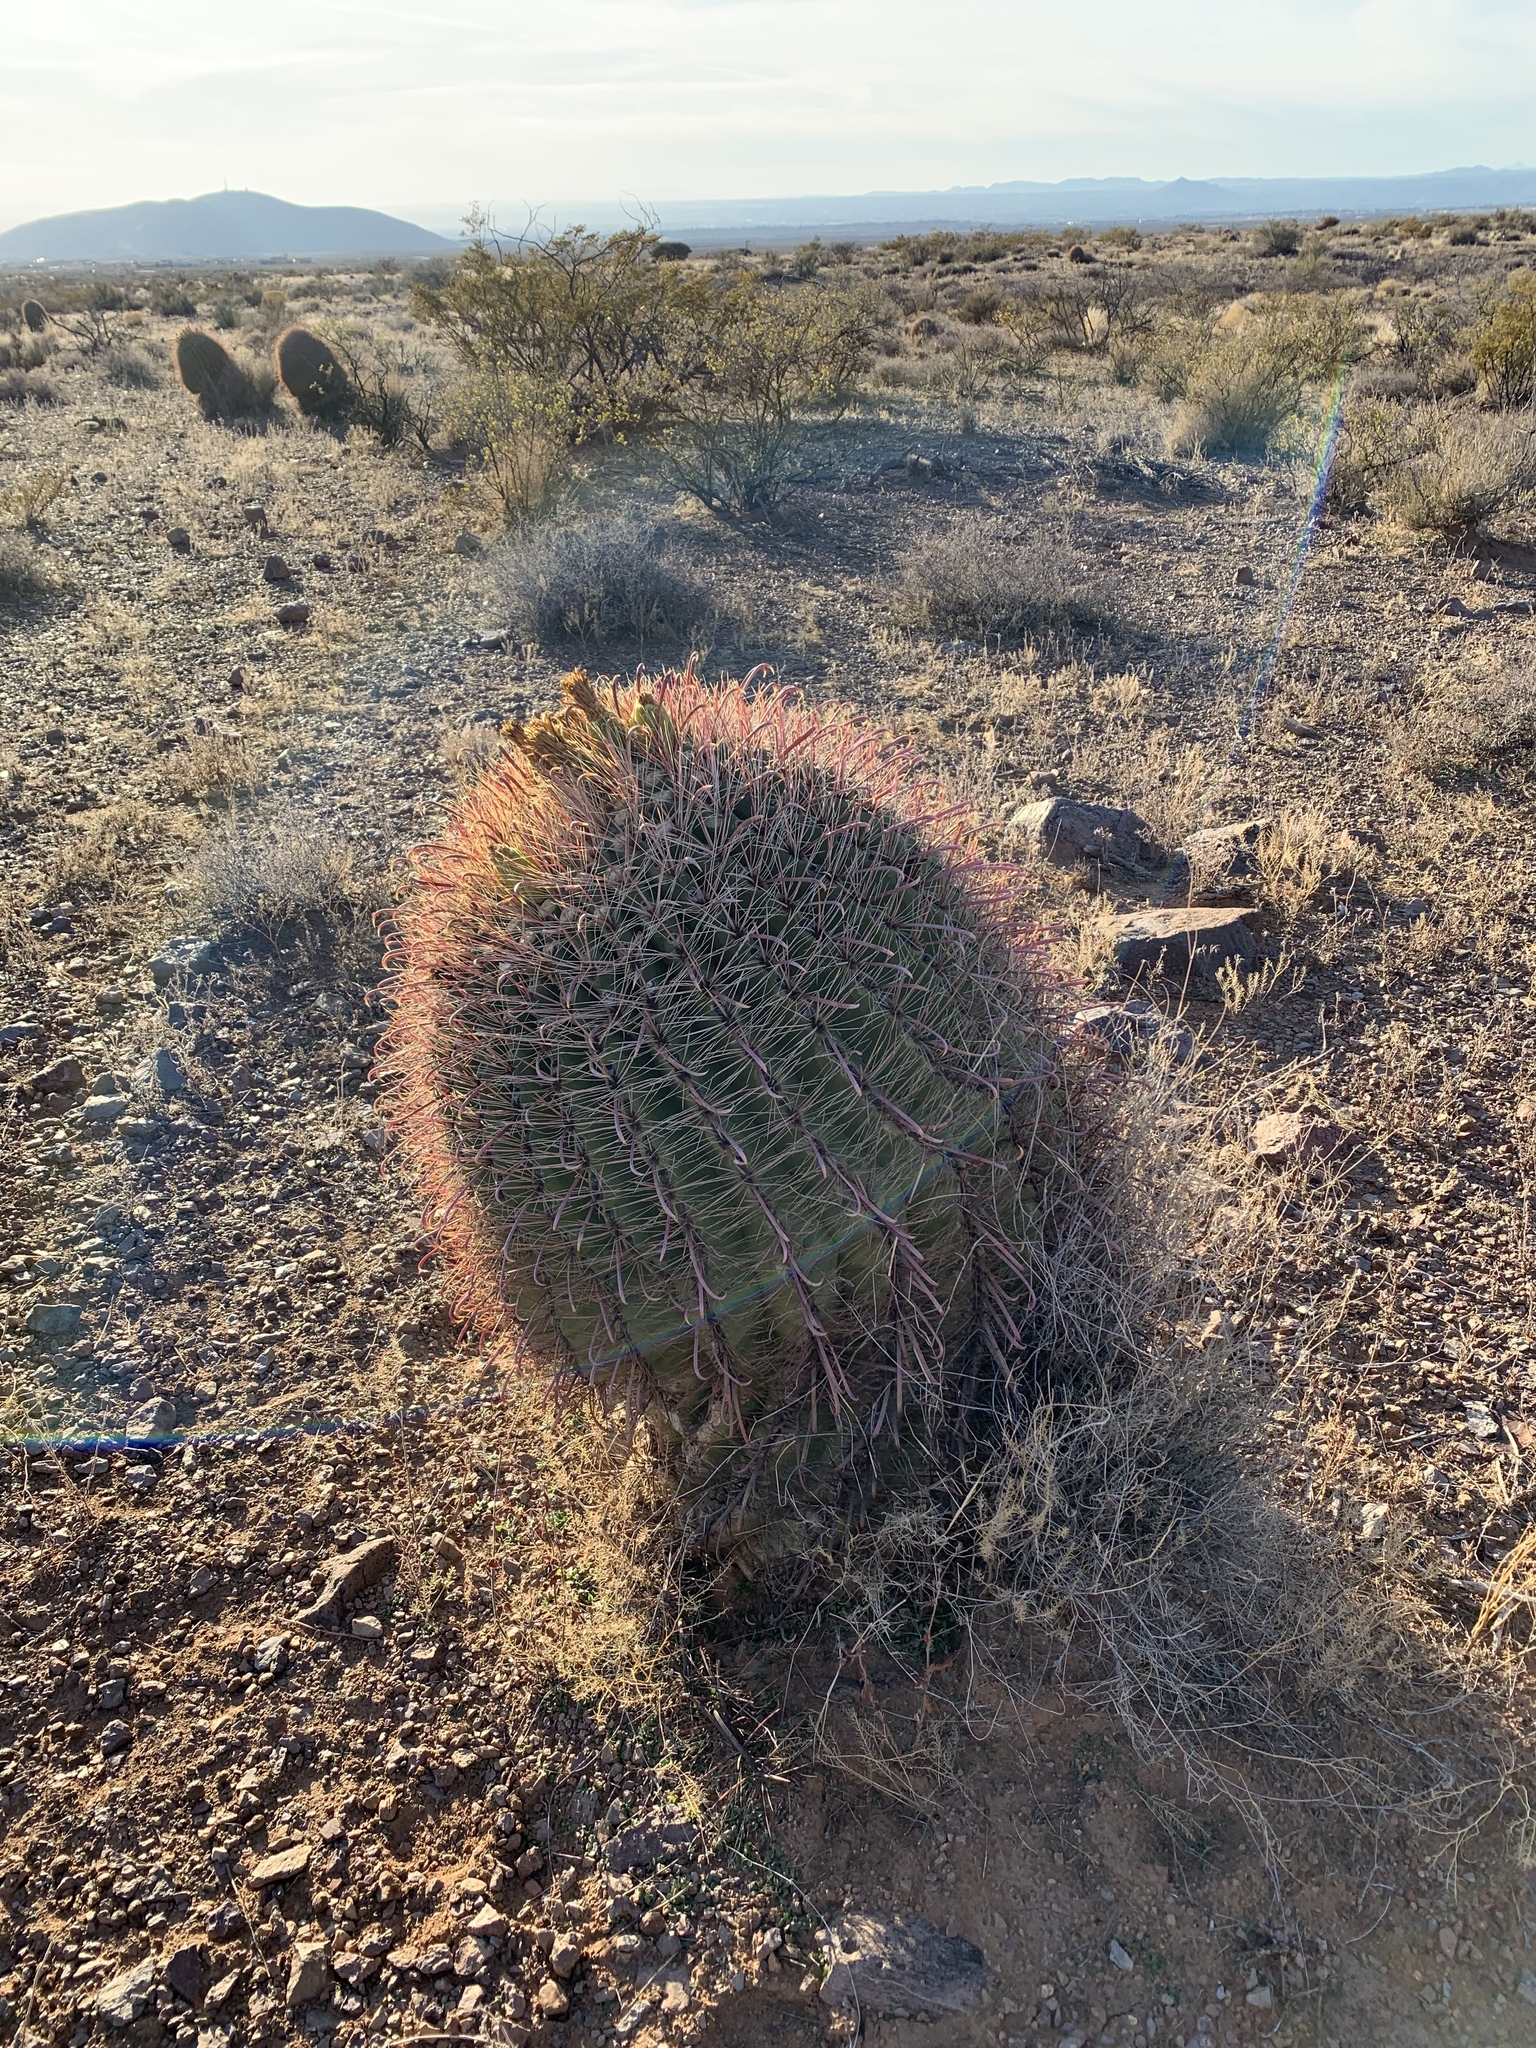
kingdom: Plantae
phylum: Tracheophyta
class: Magnoliopsida
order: Caryophyllales
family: Cactaceae
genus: Ferocactus
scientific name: Ferocactus wislizeni
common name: Candy barrel cactus
